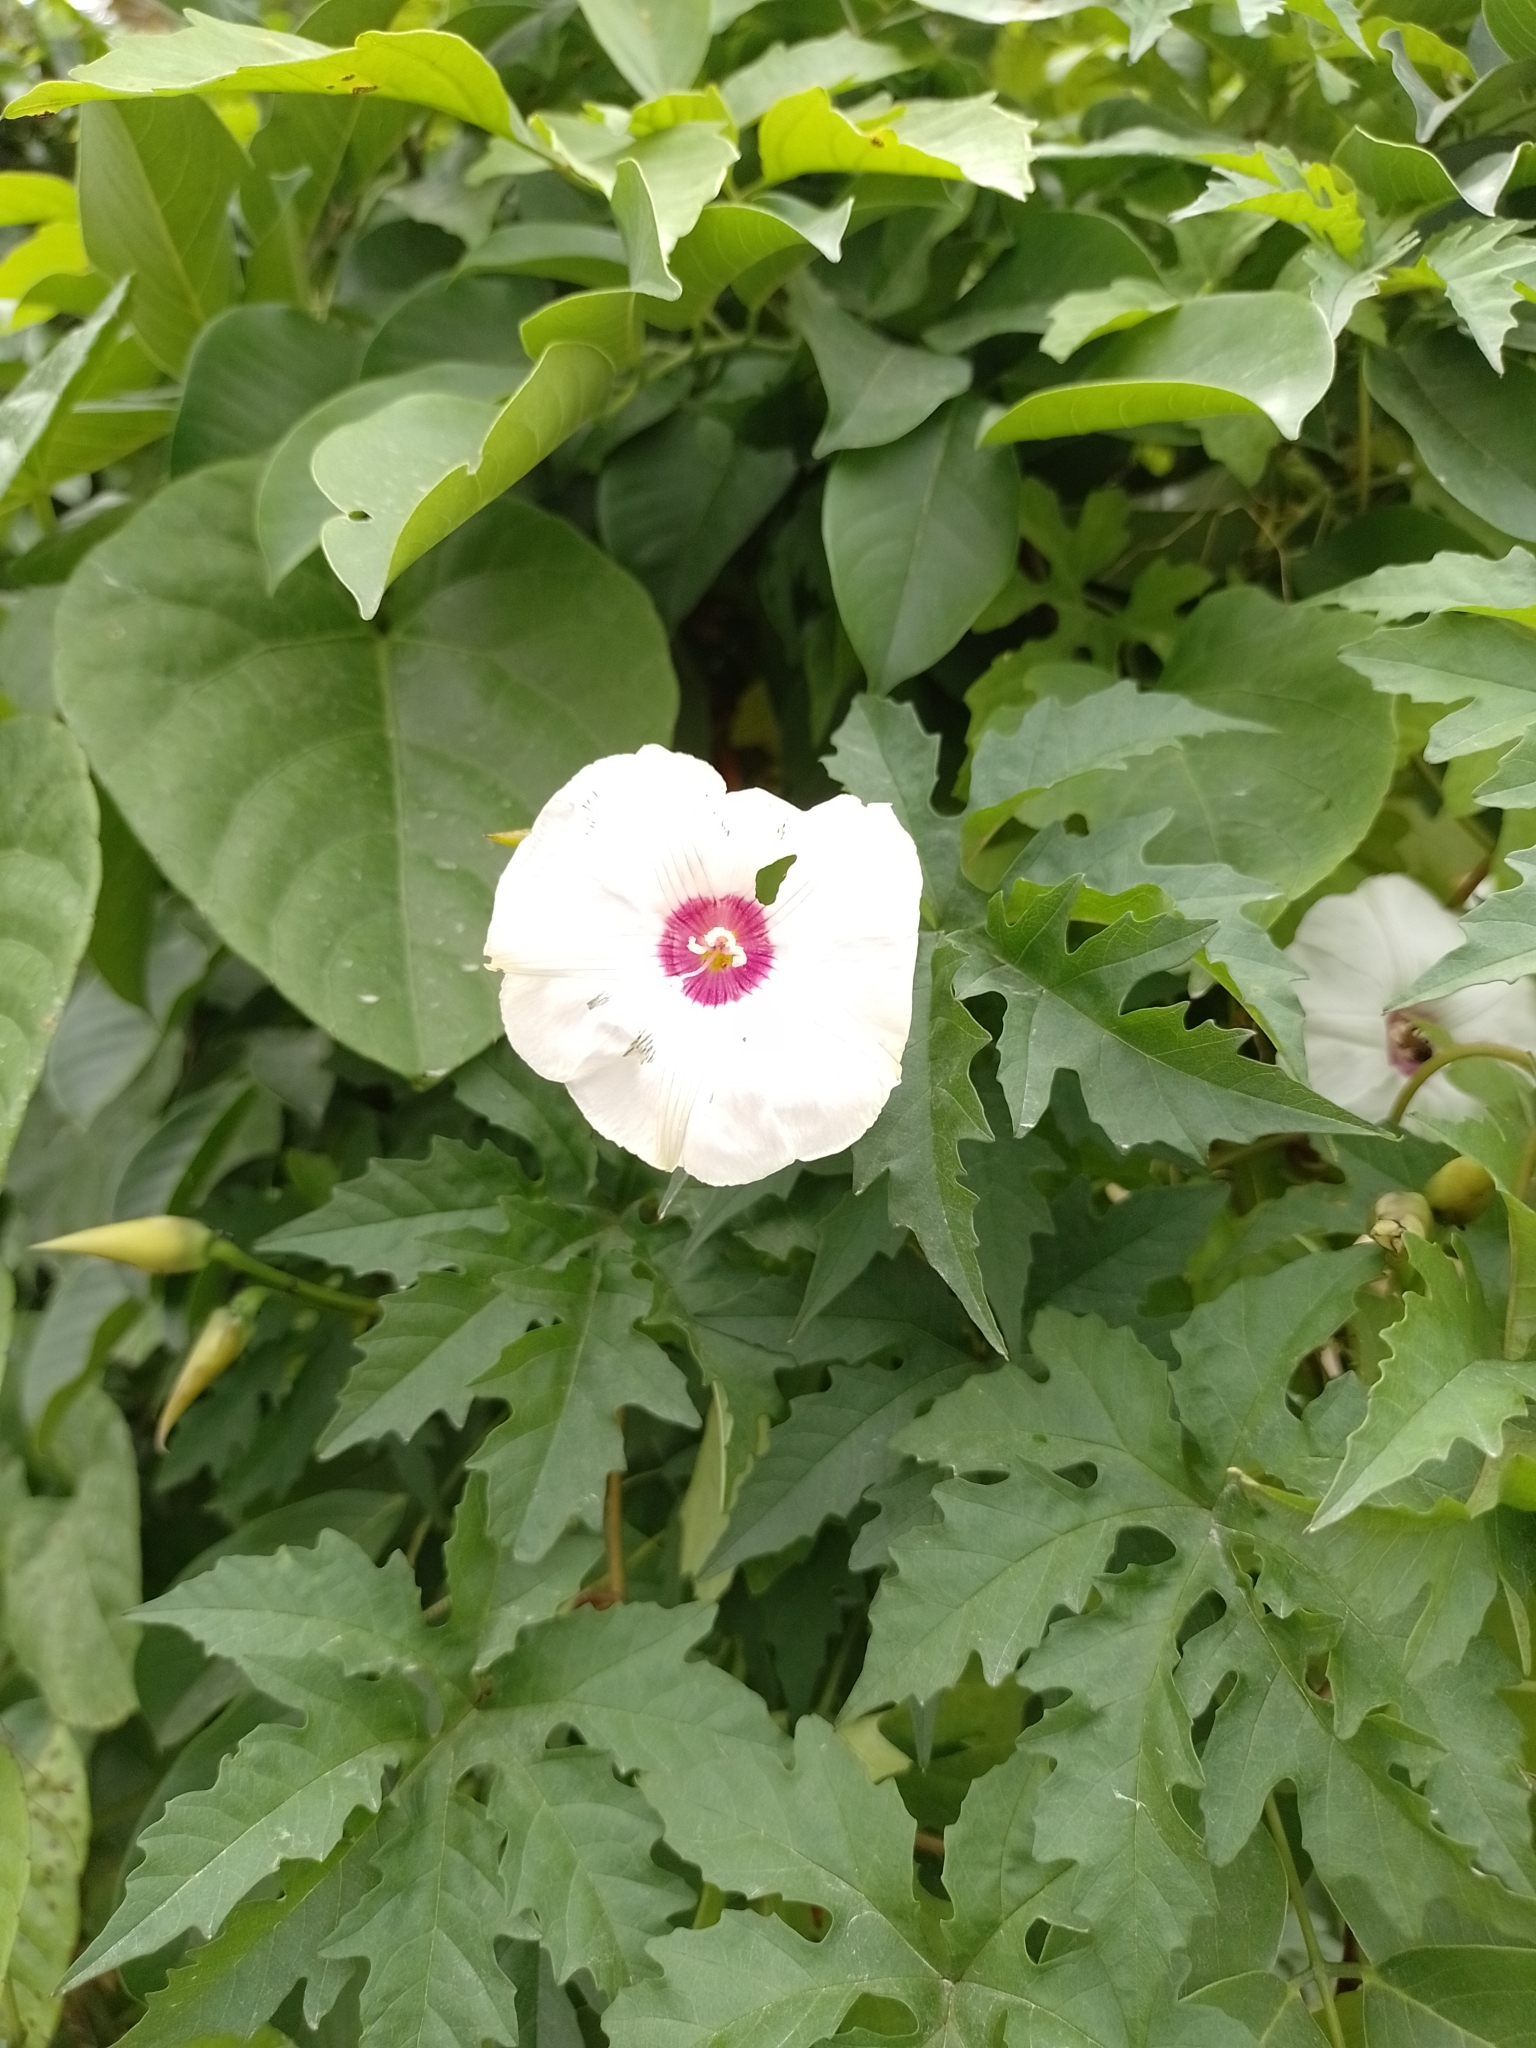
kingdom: Plantae
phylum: Tracheophyta
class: Magnoliopsida
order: Solanales
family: Convolvulaceae
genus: Distimake
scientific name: Distimake dissectus
